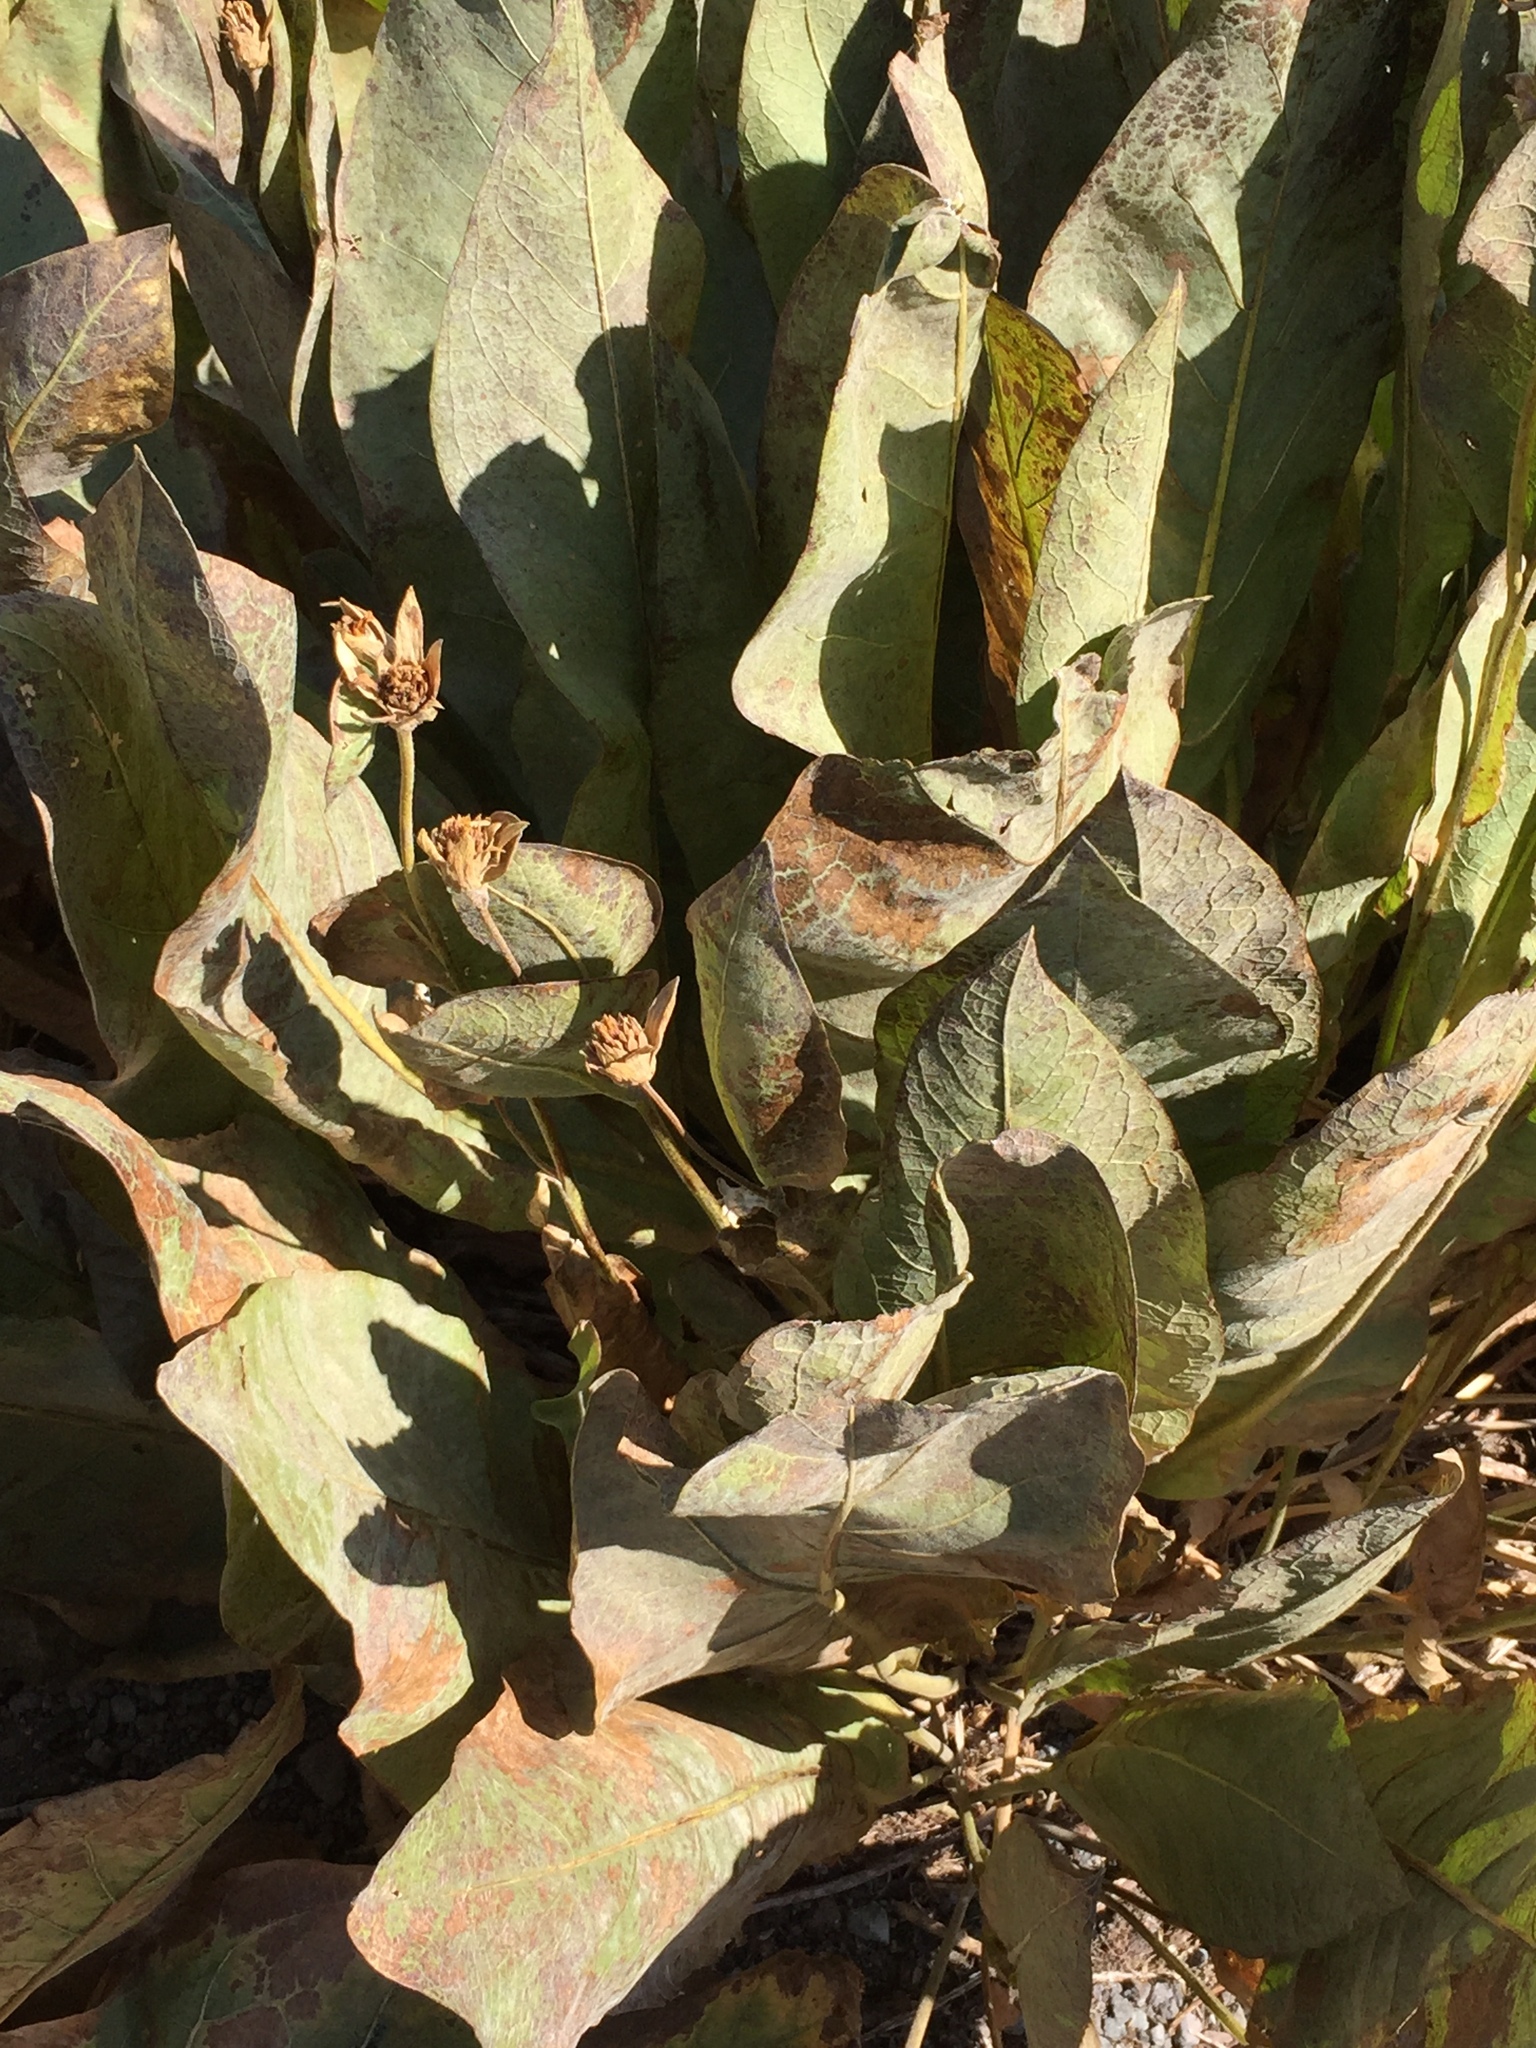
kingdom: Plantae
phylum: Tracheophyta
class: Magnoliopsida
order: Asterales
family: Asteraceae
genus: Wyethia
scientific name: Wyethia mollis
